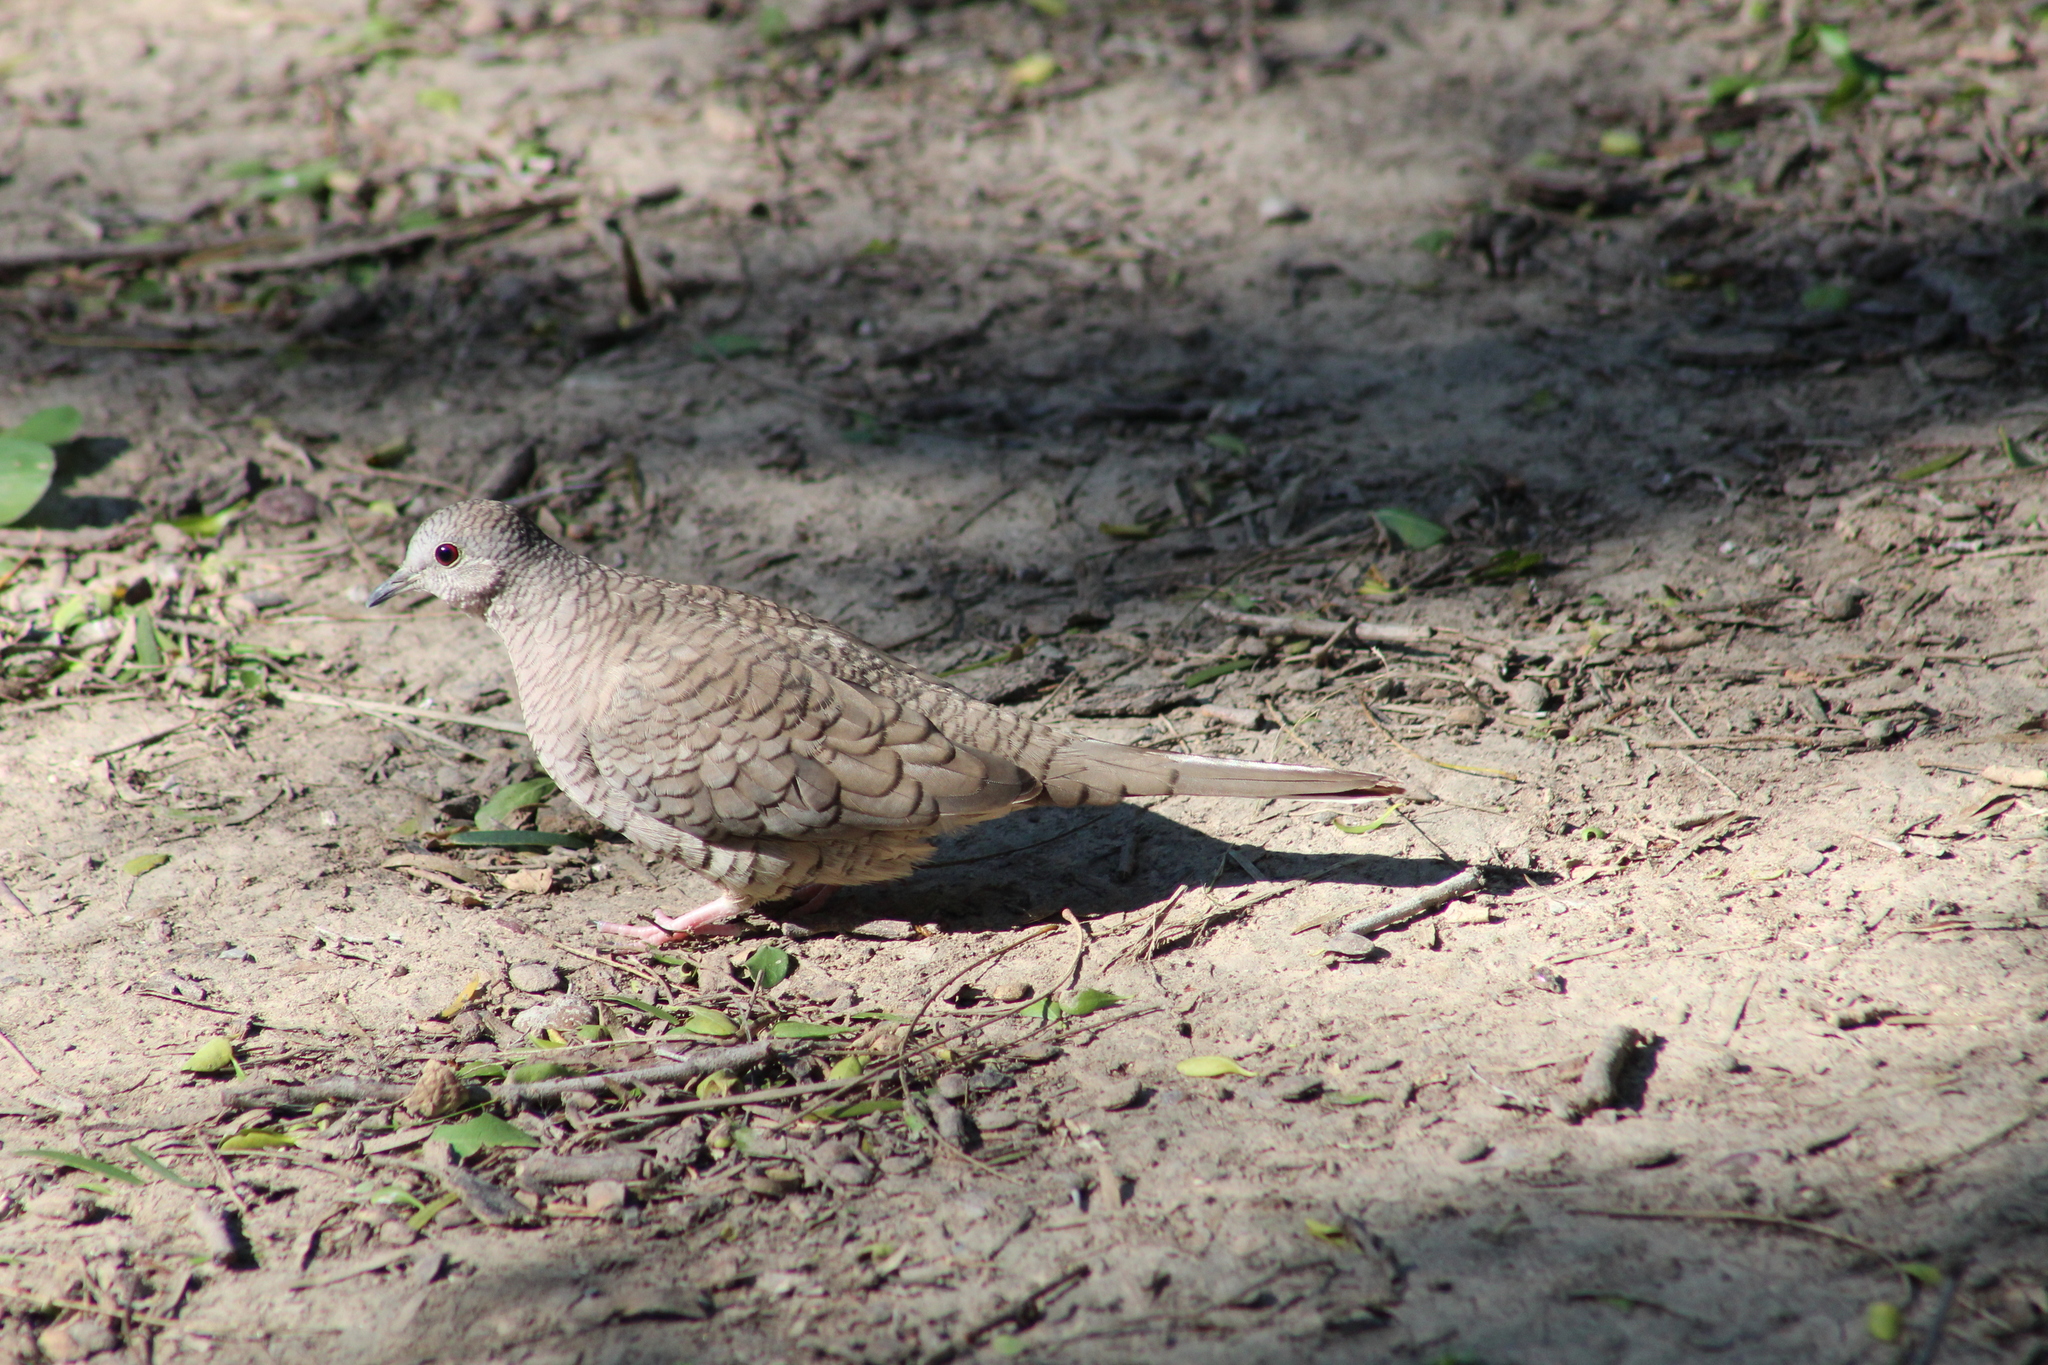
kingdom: Animalia
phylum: Chordata
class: Aves
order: Columbiformes
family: Columbidae
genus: Columbina
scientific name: Columbina inca
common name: Inca dove
